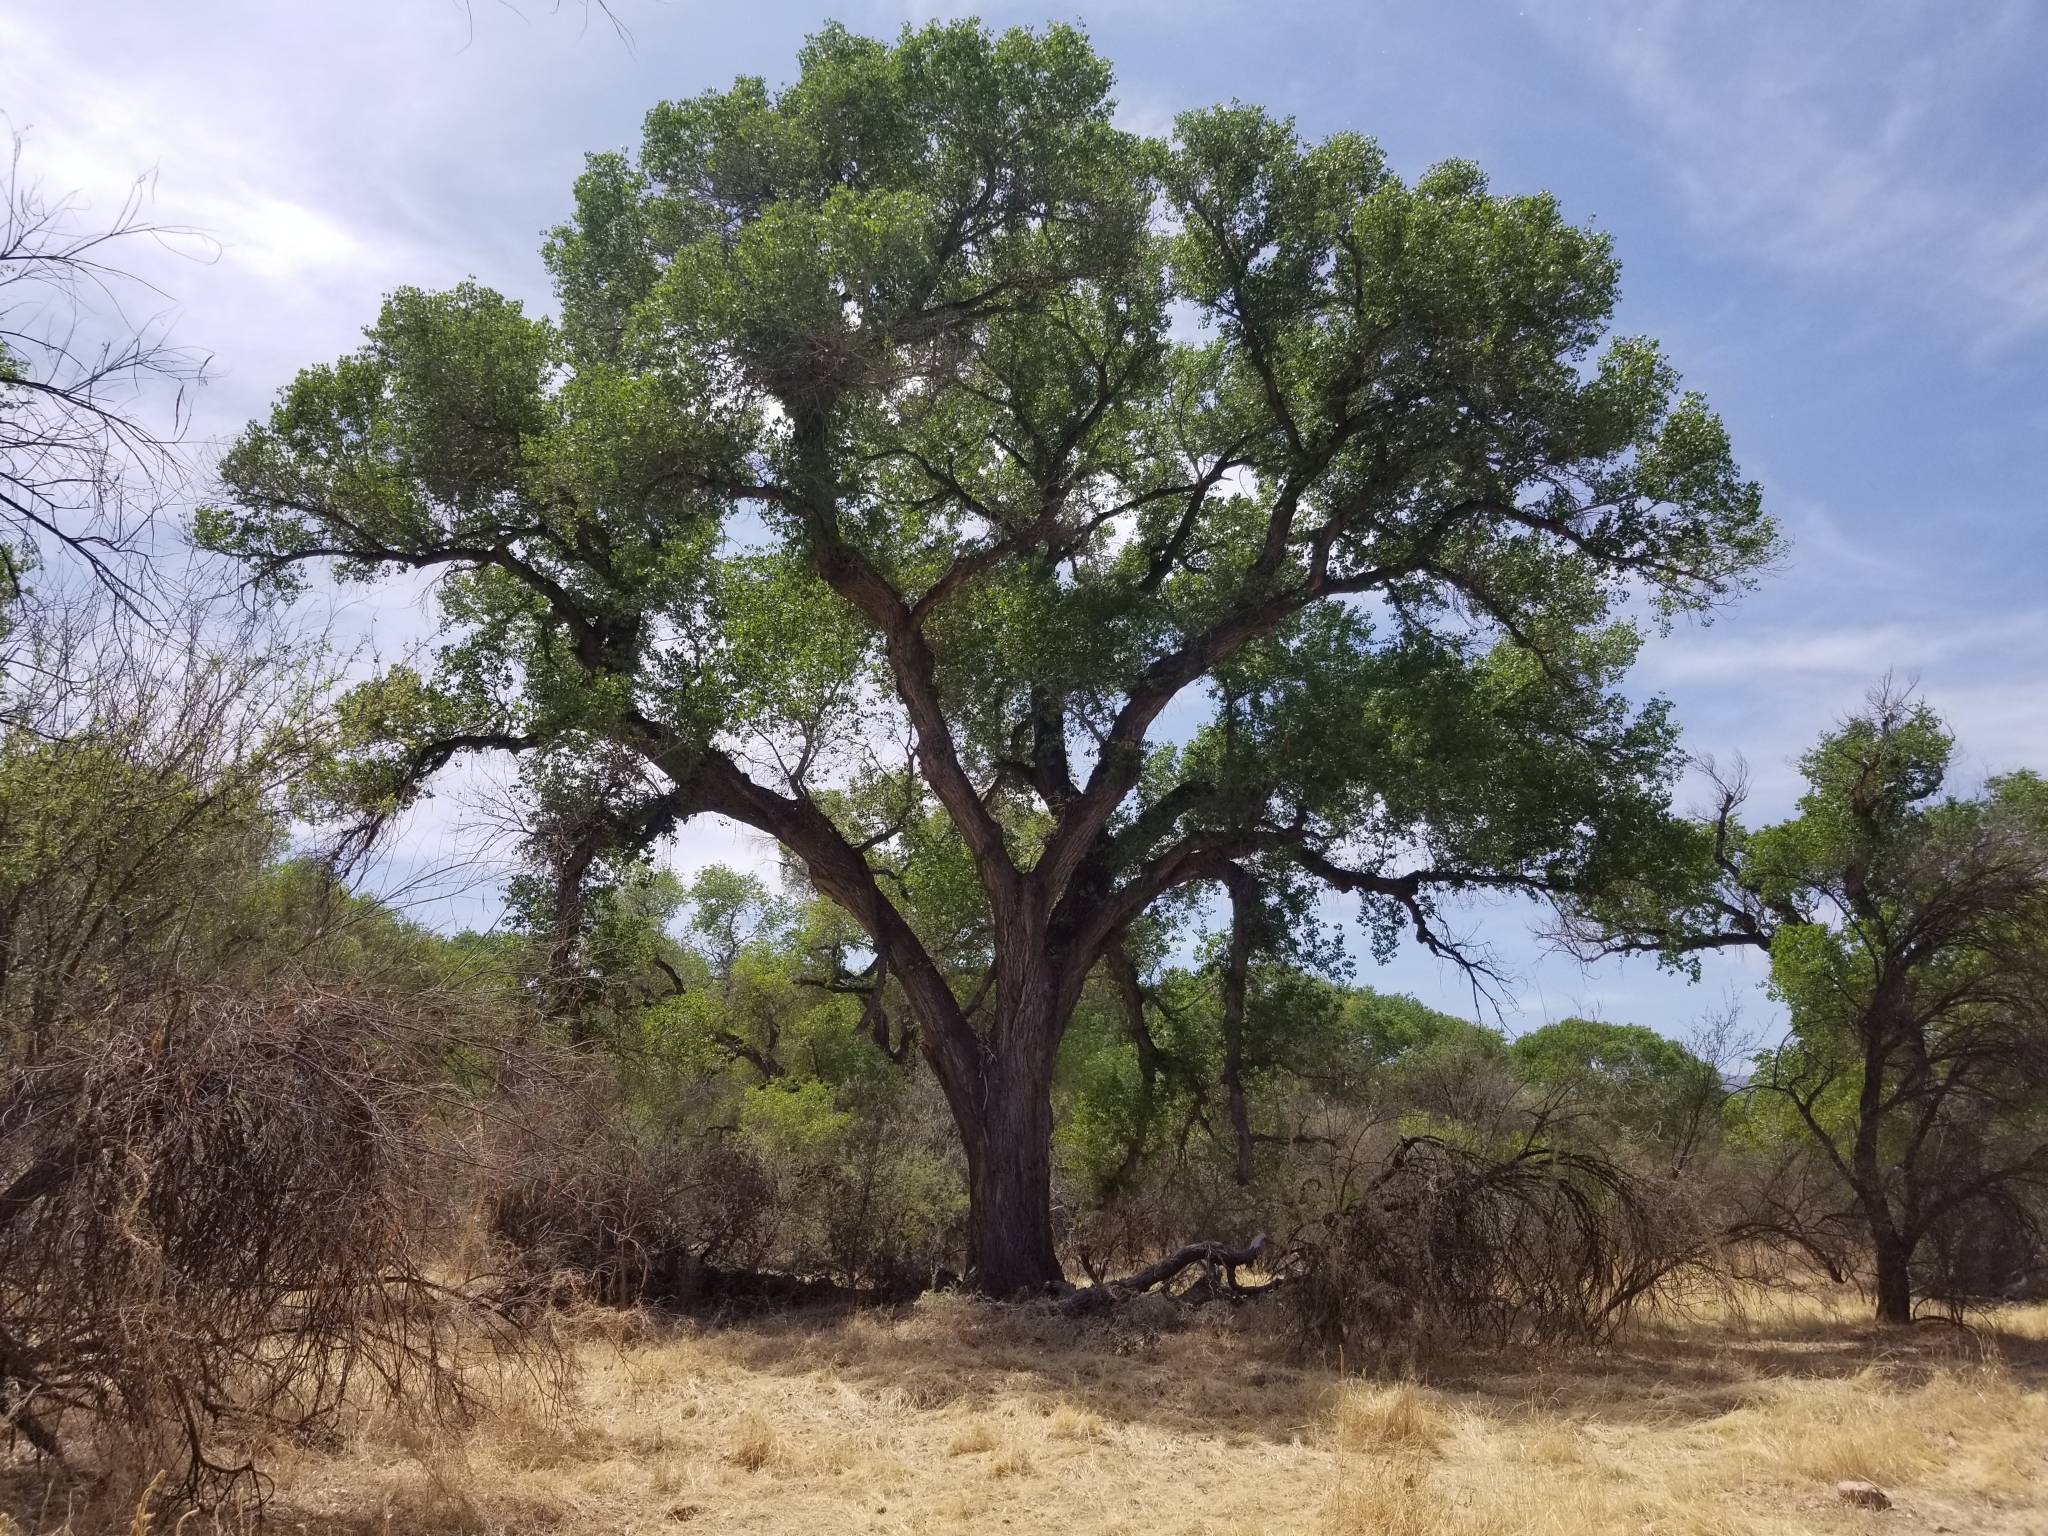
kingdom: Plantae
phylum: Tracheophyta
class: Magnoliopsida
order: Malpighiales
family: Salicaceae
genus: Populus
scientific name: Populus fremontii
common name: Fremont's cottonwood
